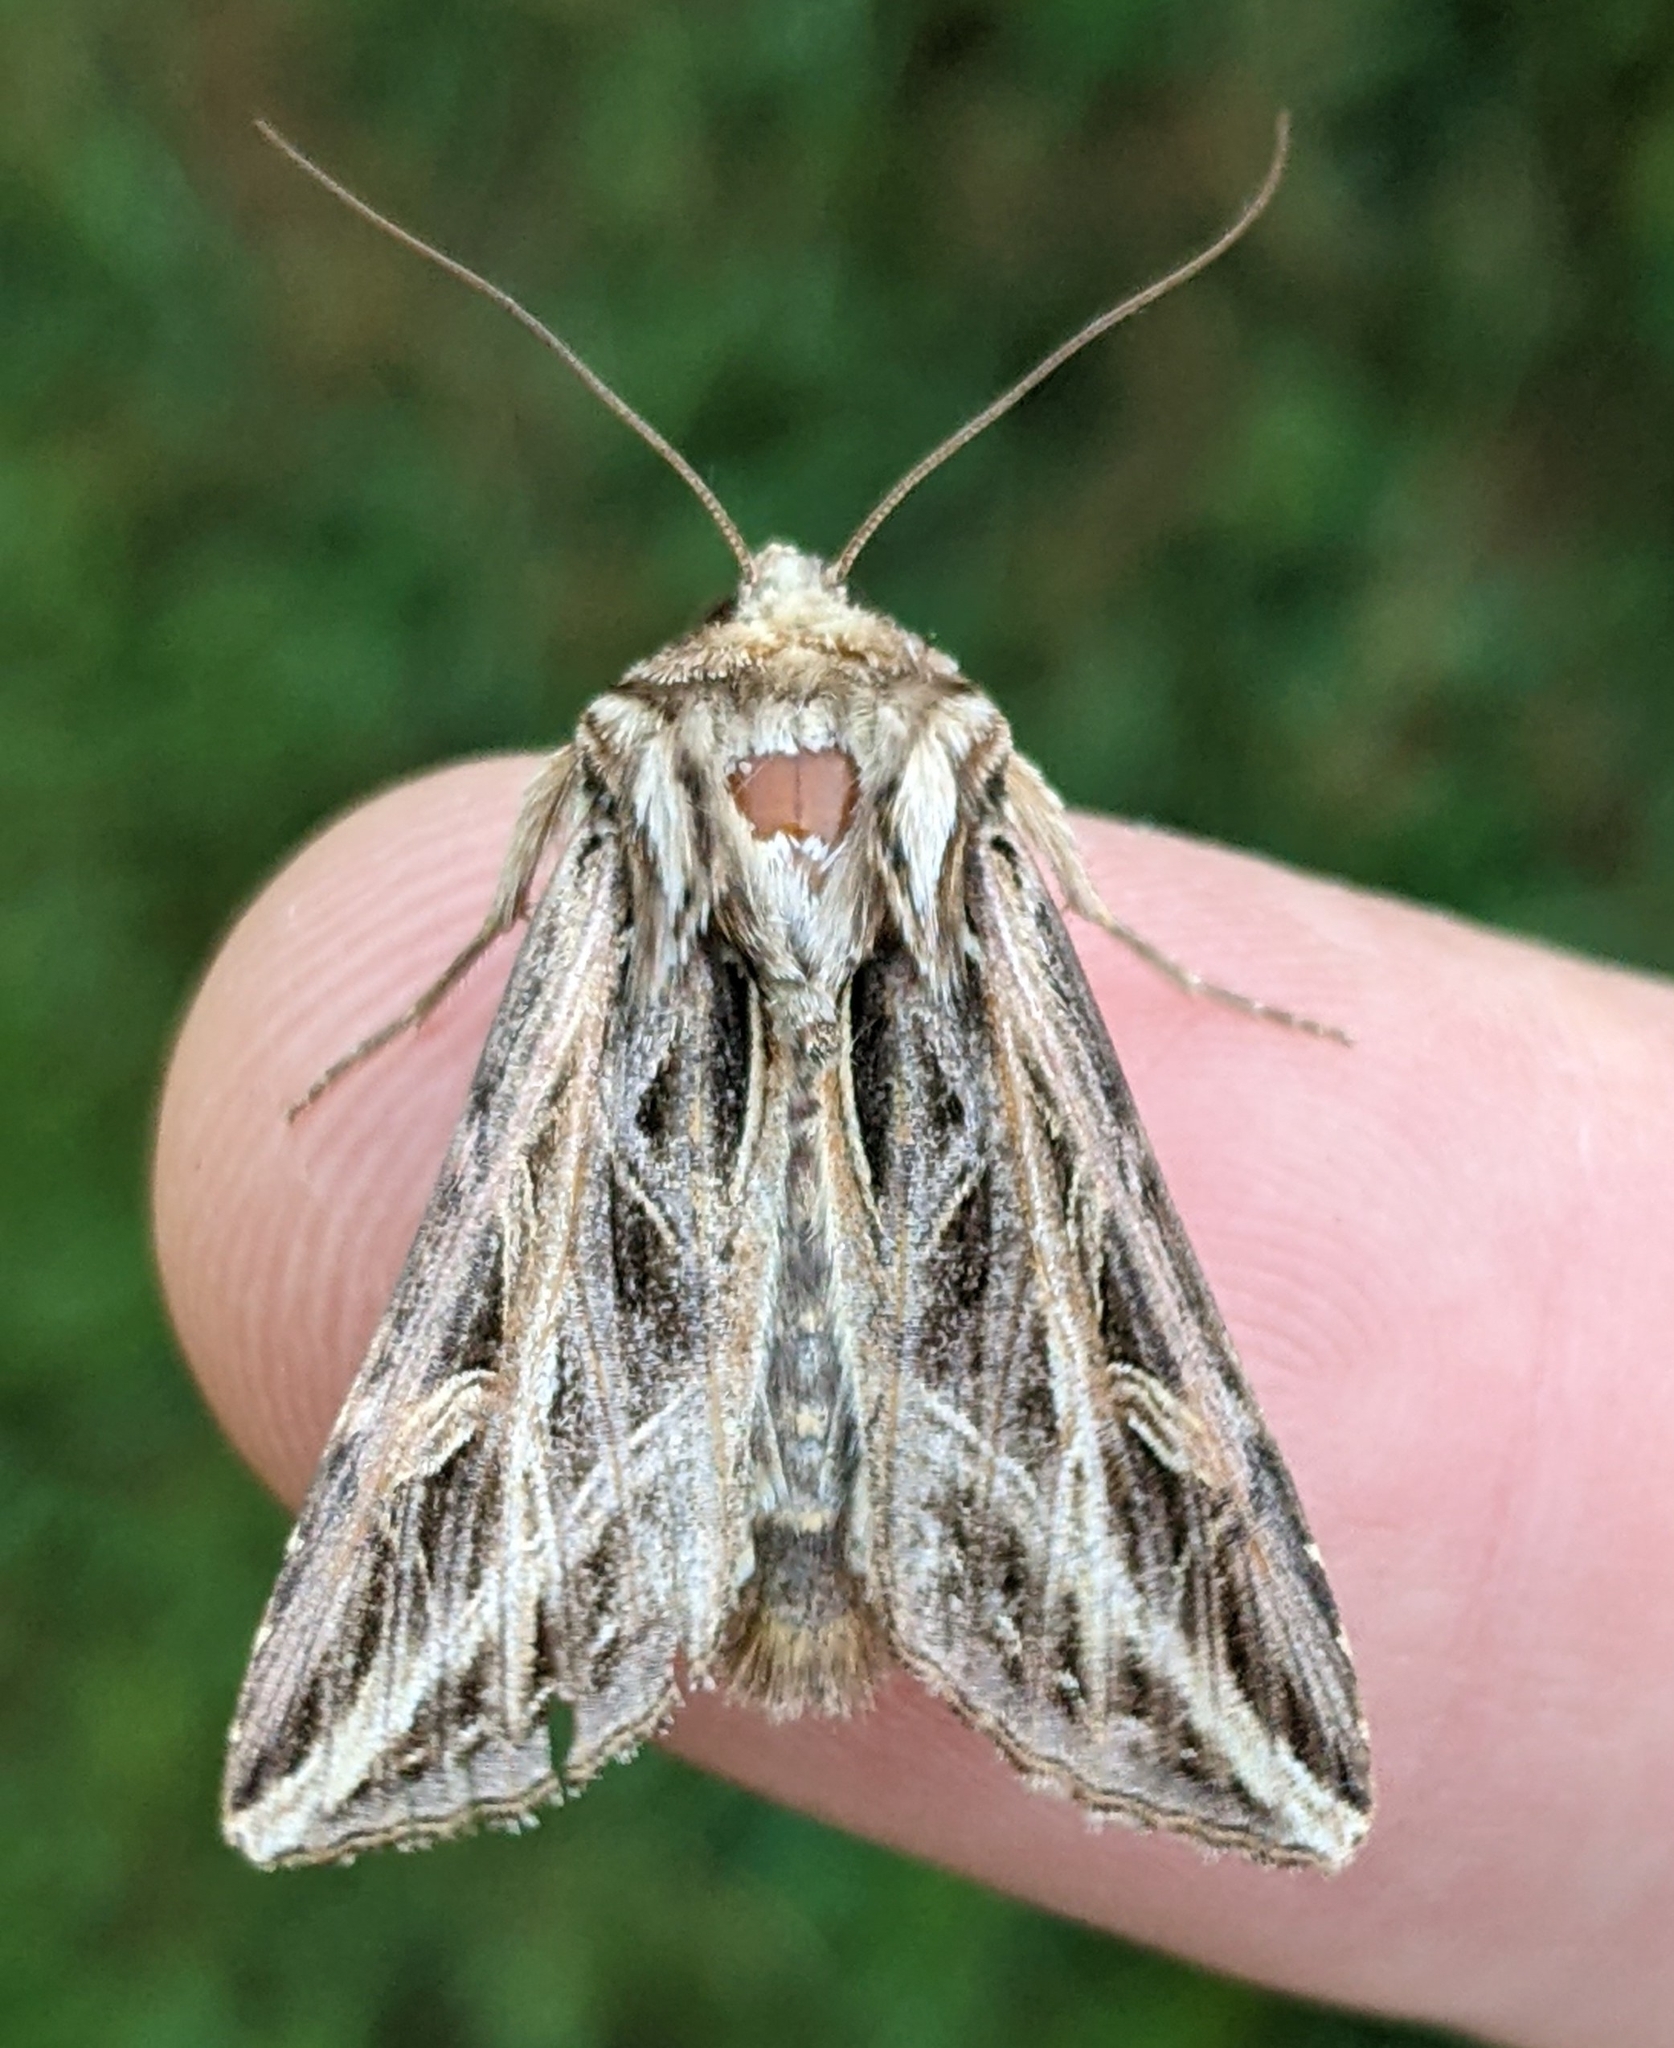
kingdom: Animalia
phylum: Arthropoda
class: Insecta
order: Lepidoptera
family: Noctuidae
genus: Dargida
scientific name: Dargida procinctus
